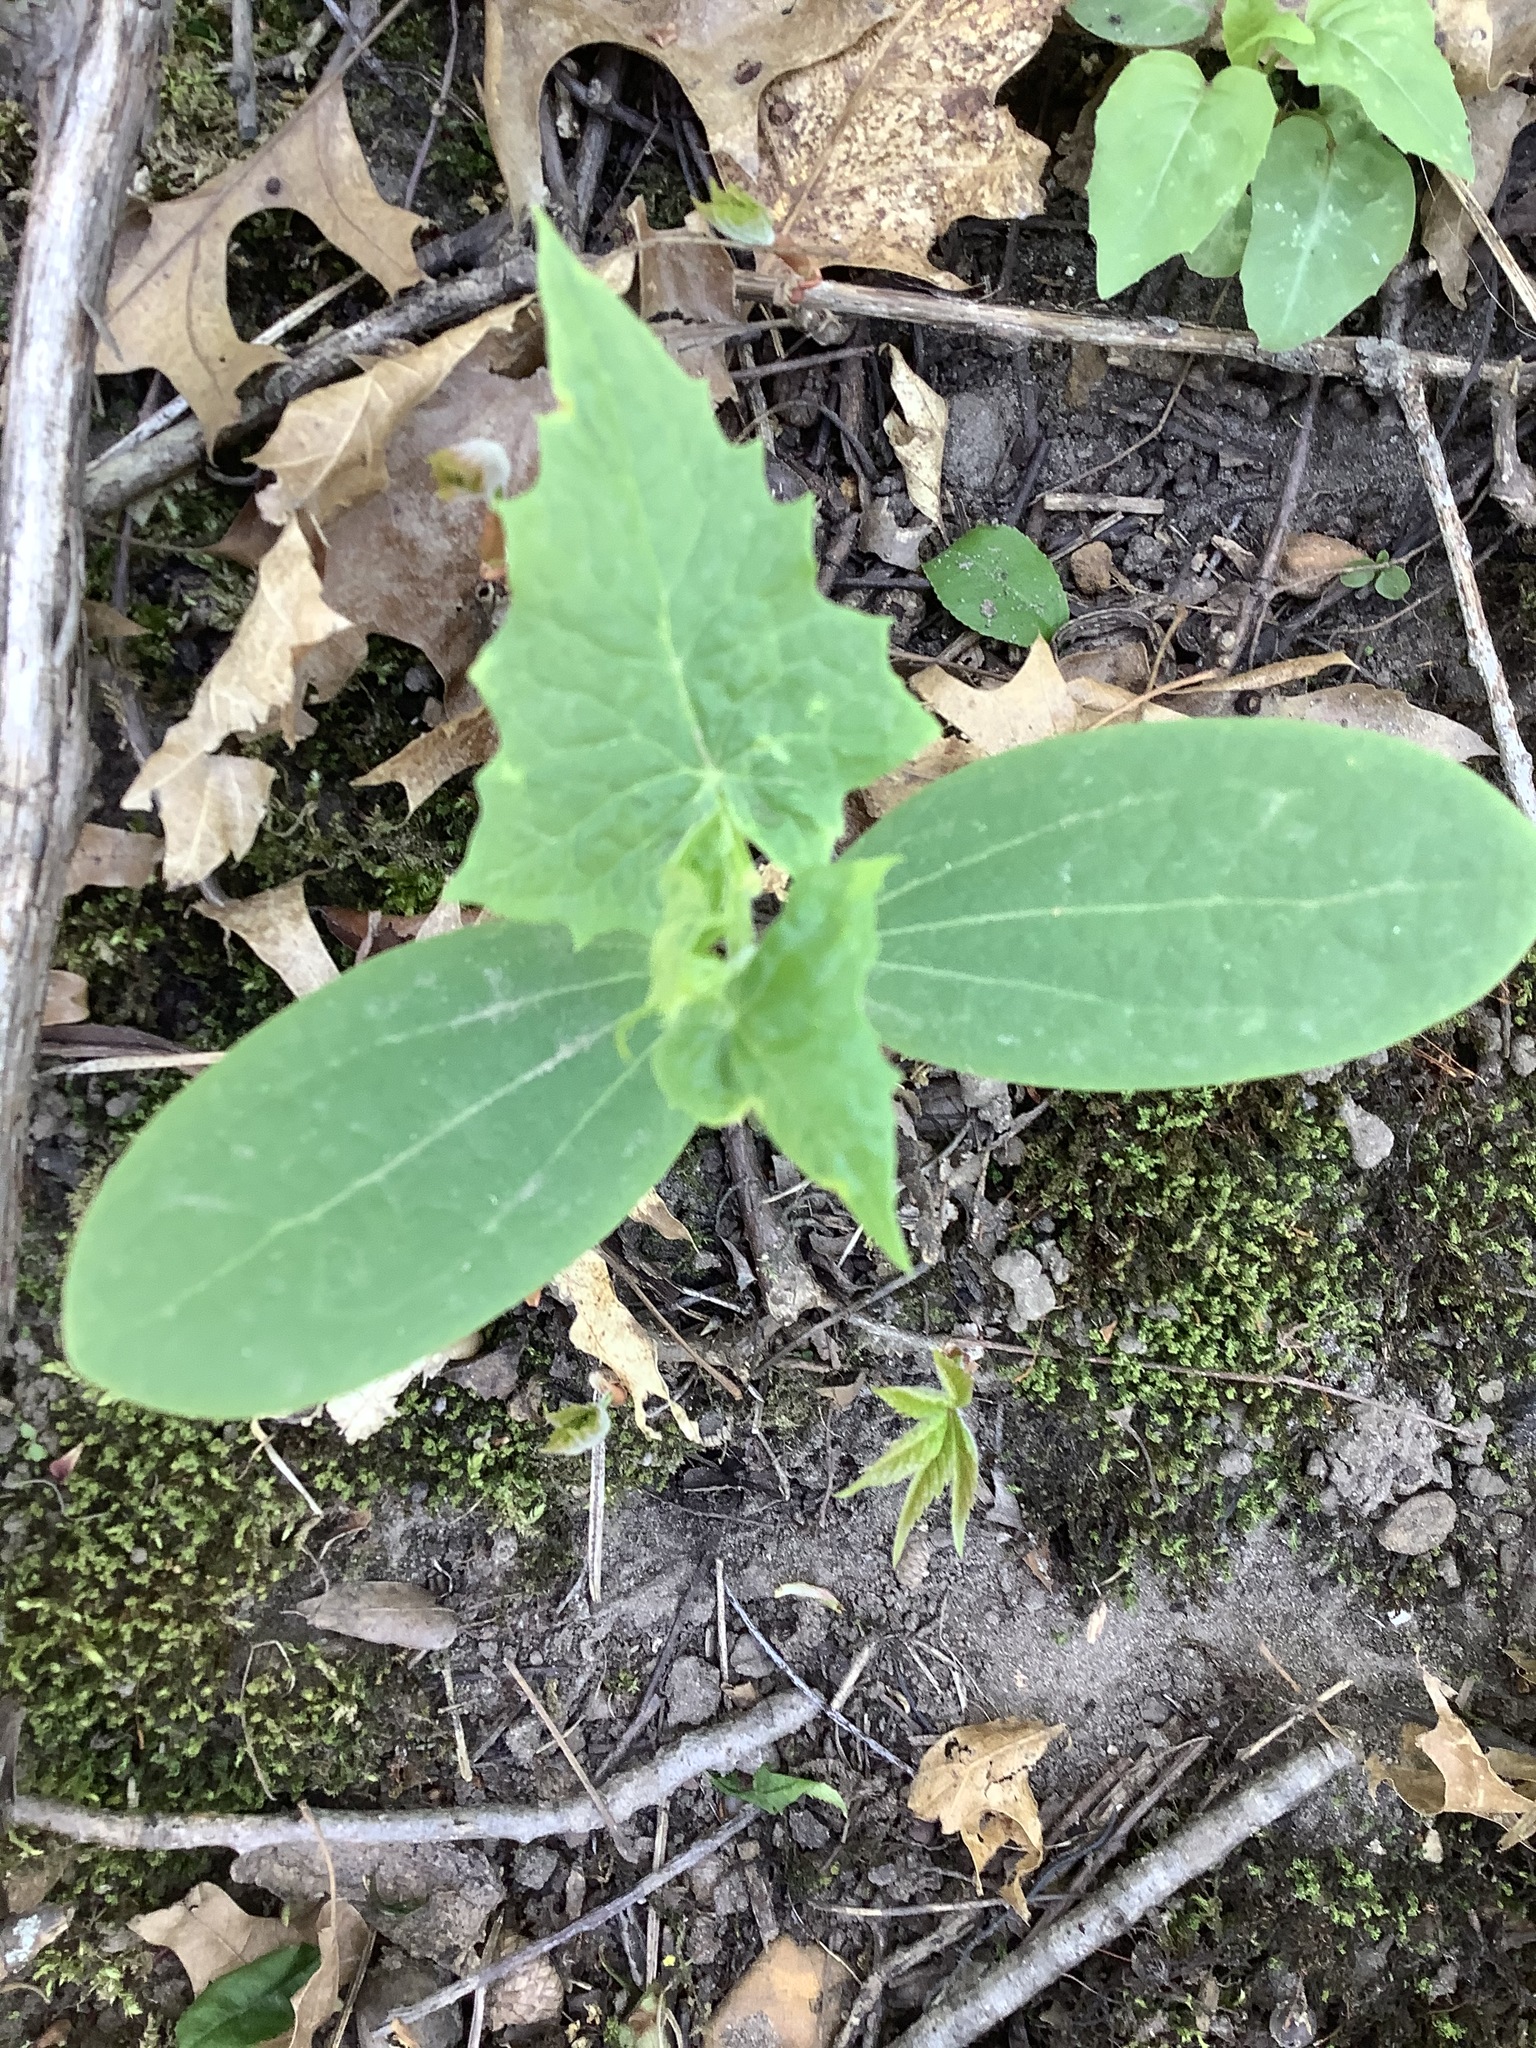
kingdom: Plantae
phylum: Tracheophyta
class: Magnoliopsida
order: Cucurbitales
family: Cucurbitaceae
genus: Echinocystis
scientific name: Echinocystis lobata
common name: Wild cucumber
